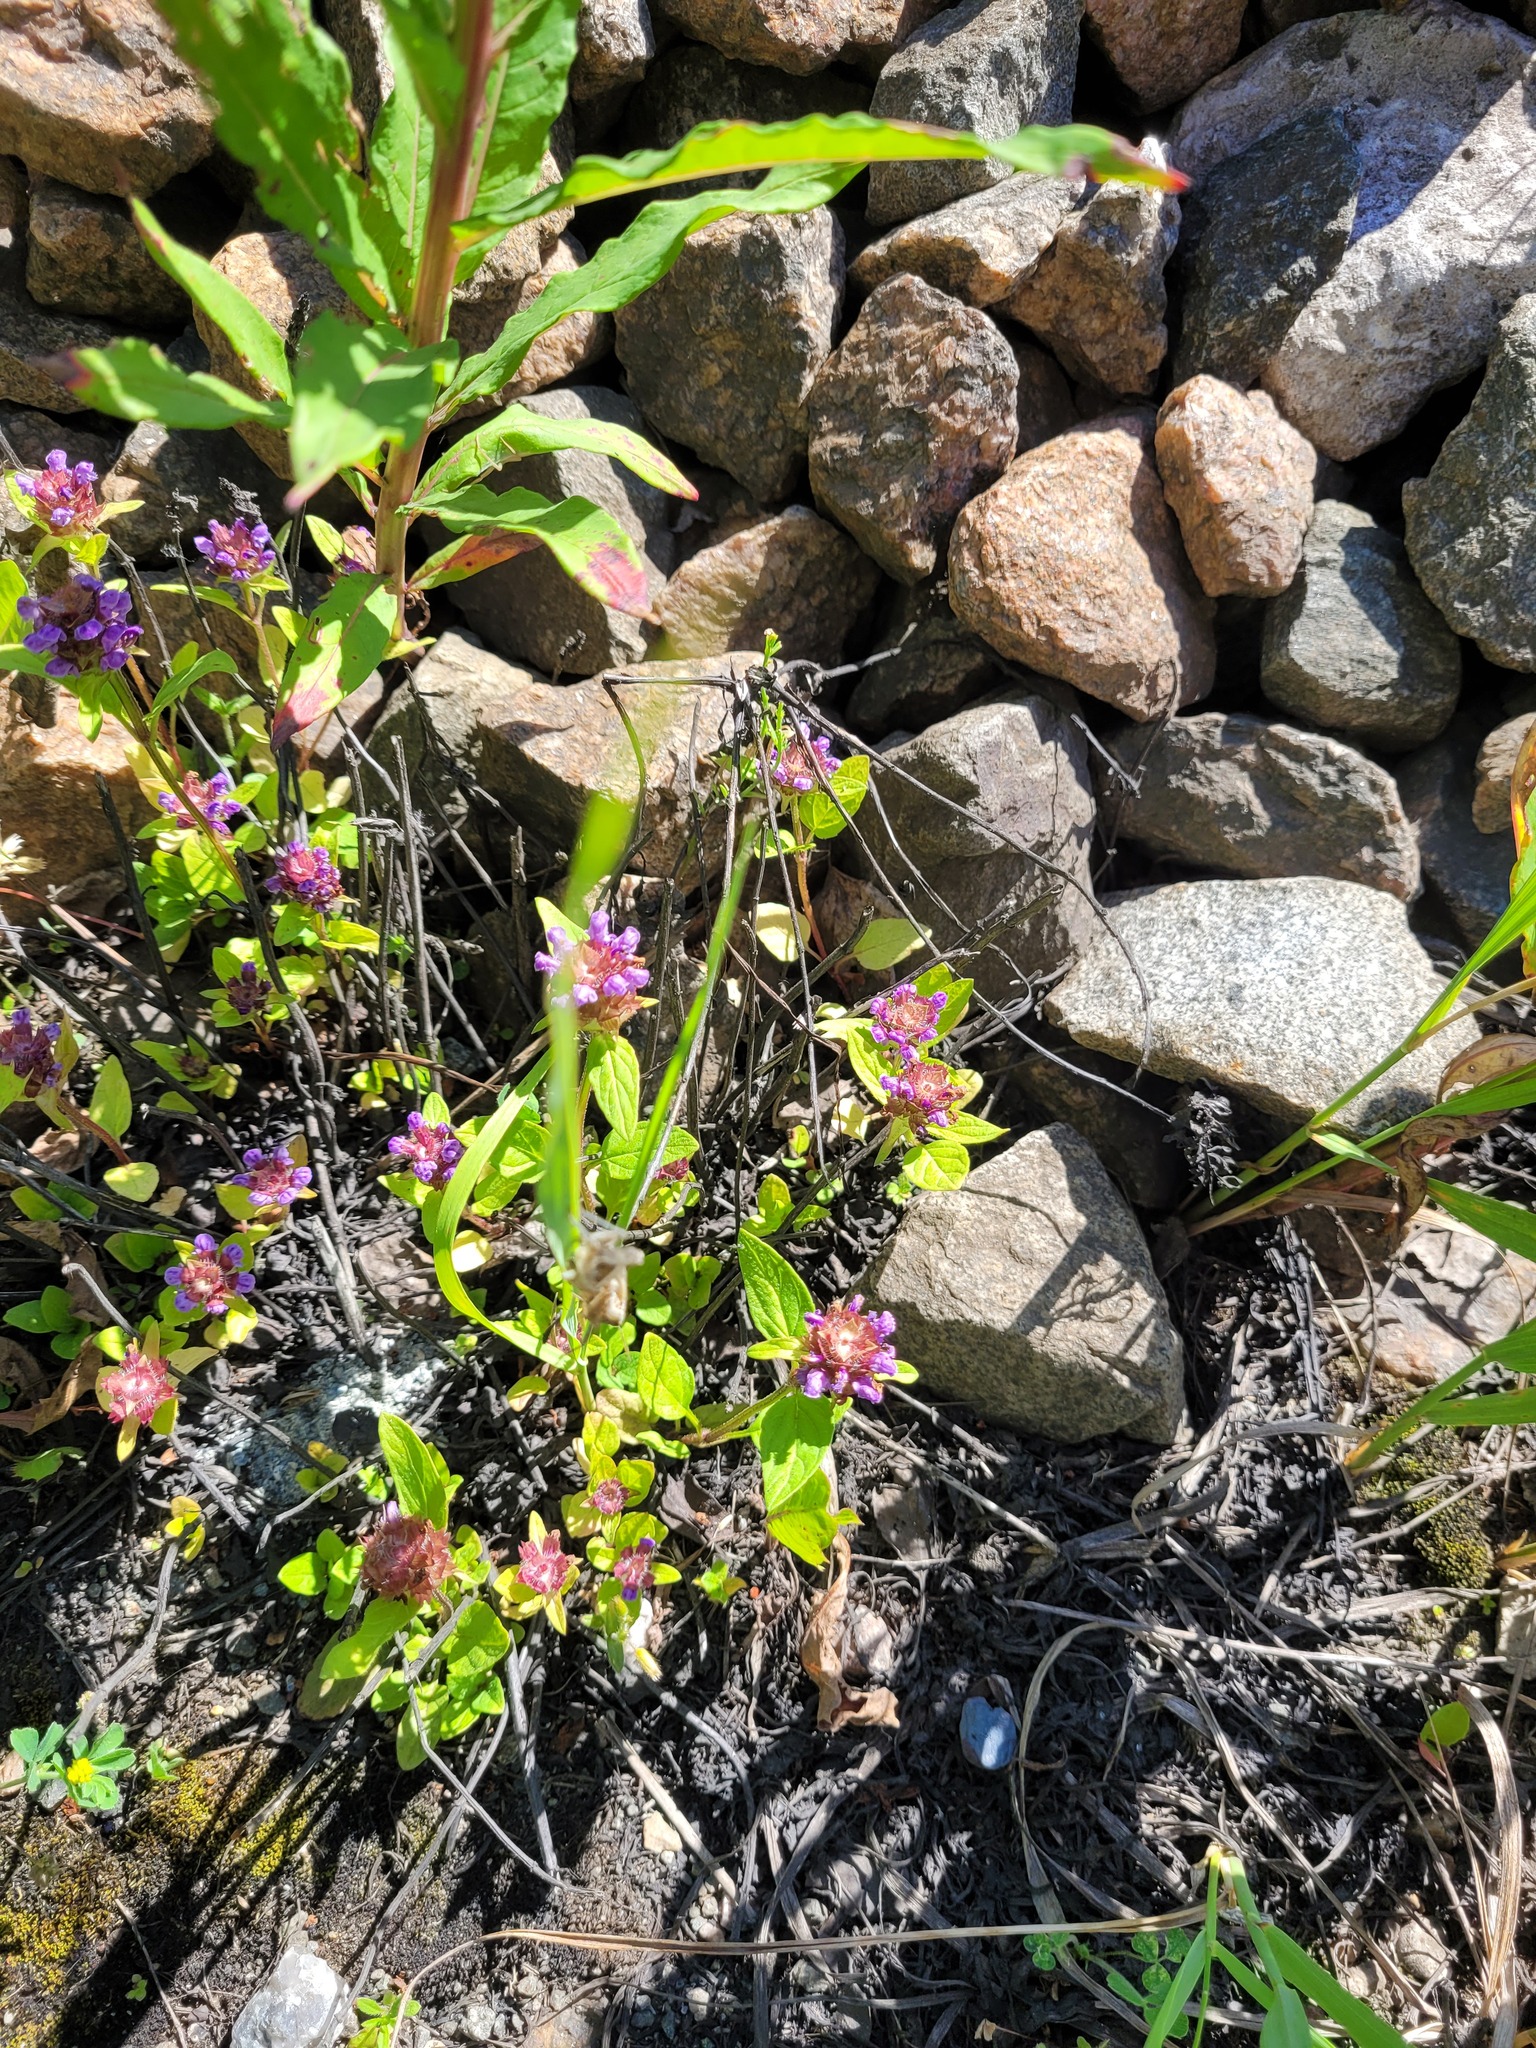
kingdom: Plantae
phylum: Tracheophyta
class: Magnoliopsida
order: Lamiales
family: Lamiaceae
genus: Prunella
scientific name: Prunella vulgaris
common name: Heal-all
